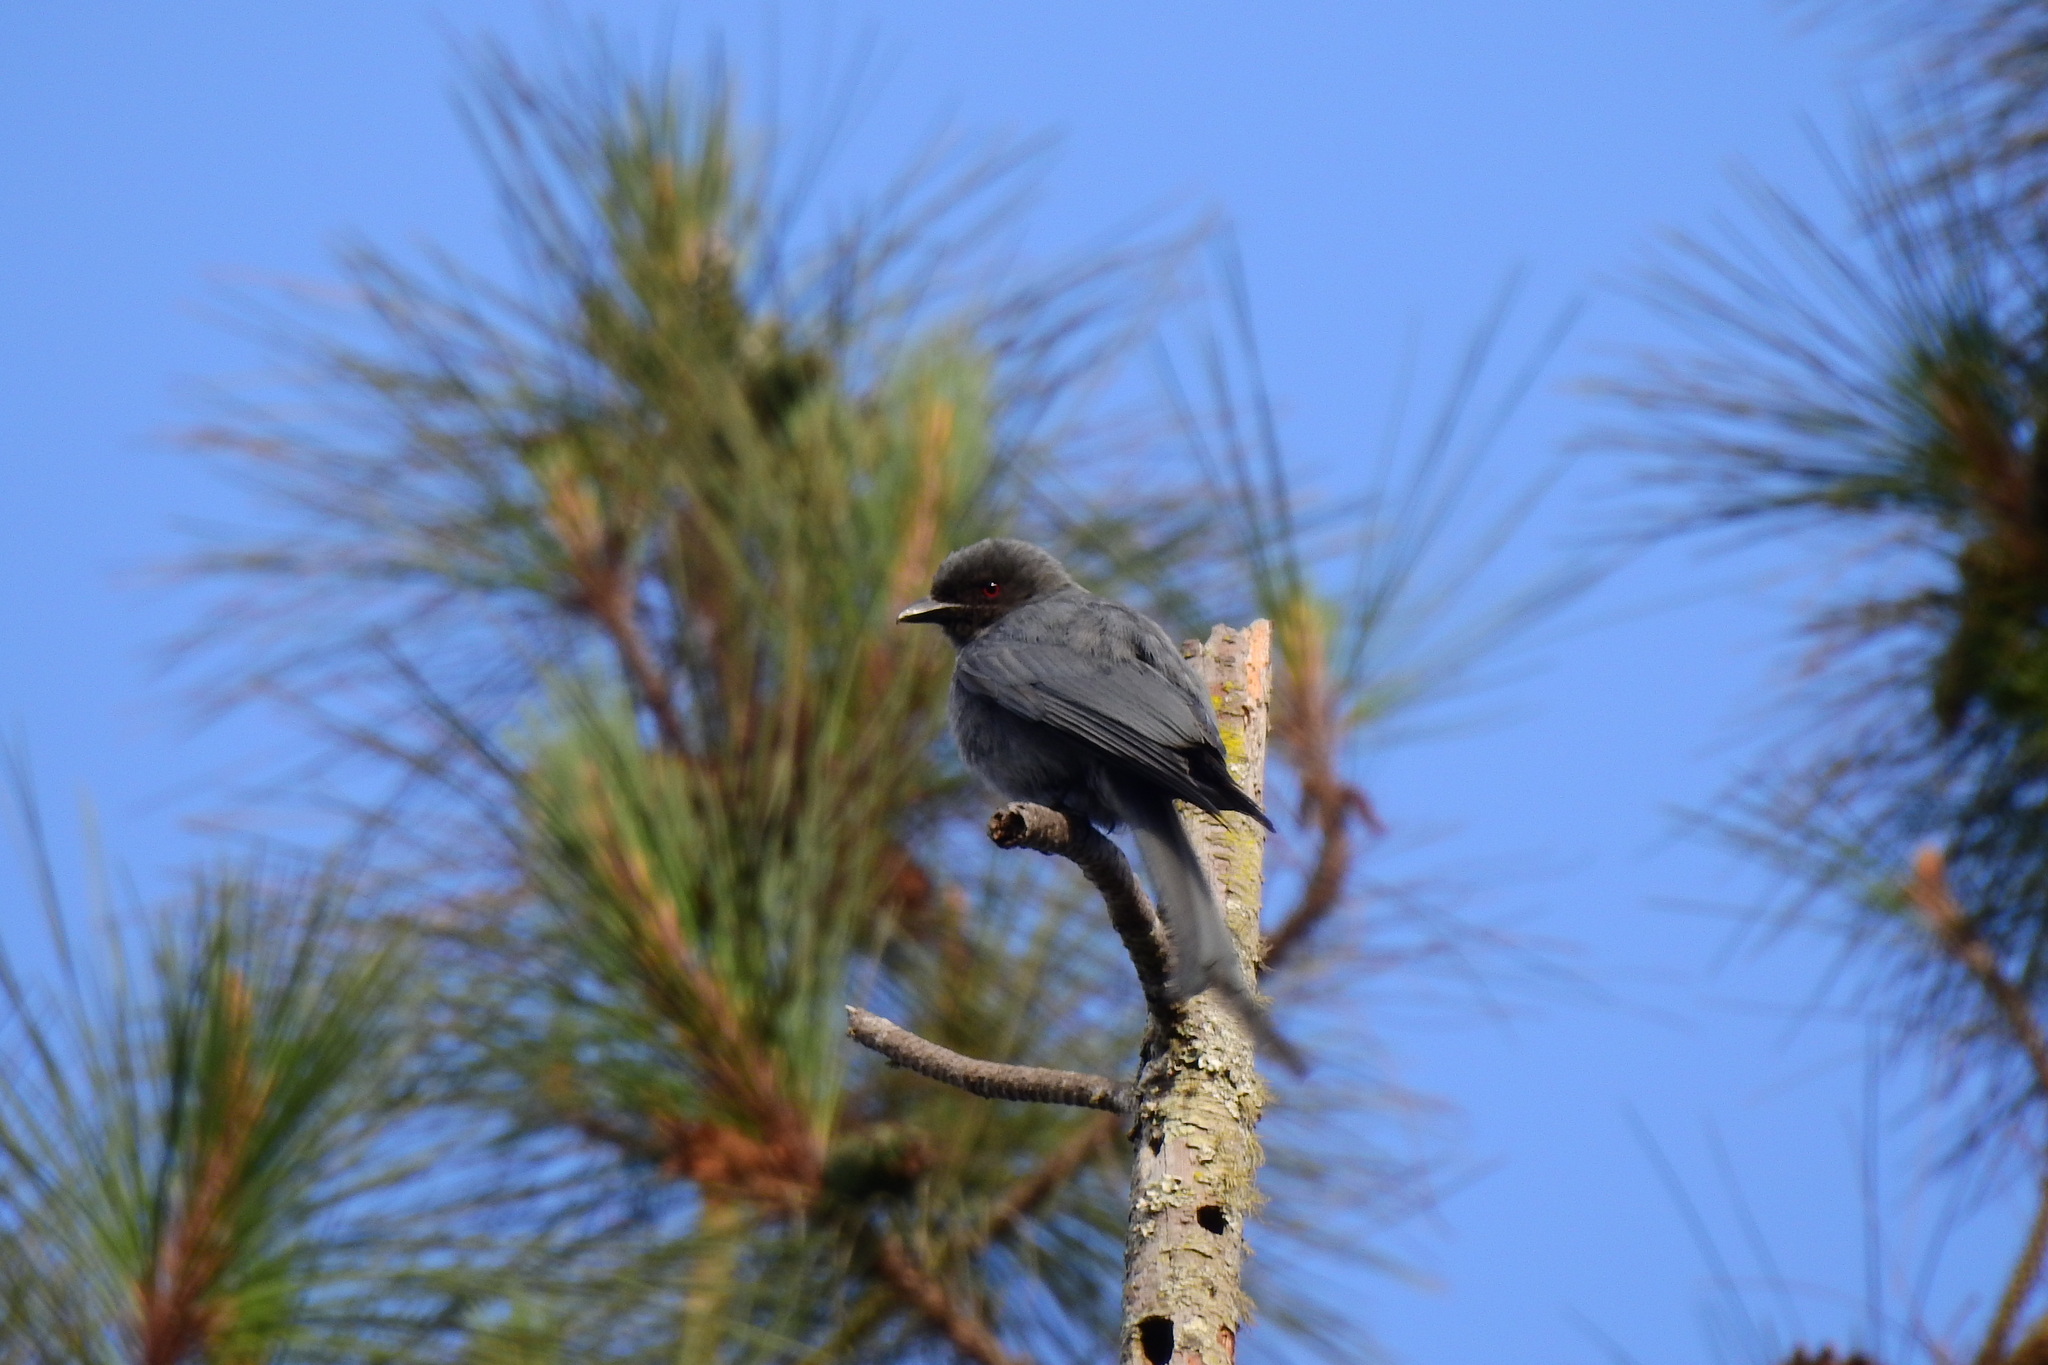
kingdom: Animalia
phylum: Chordata
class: Aves
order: Passeriformes
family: Dicruridae
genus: Dicrurus
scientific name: Dicrurus leucophaeus
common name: Ashy drongo
